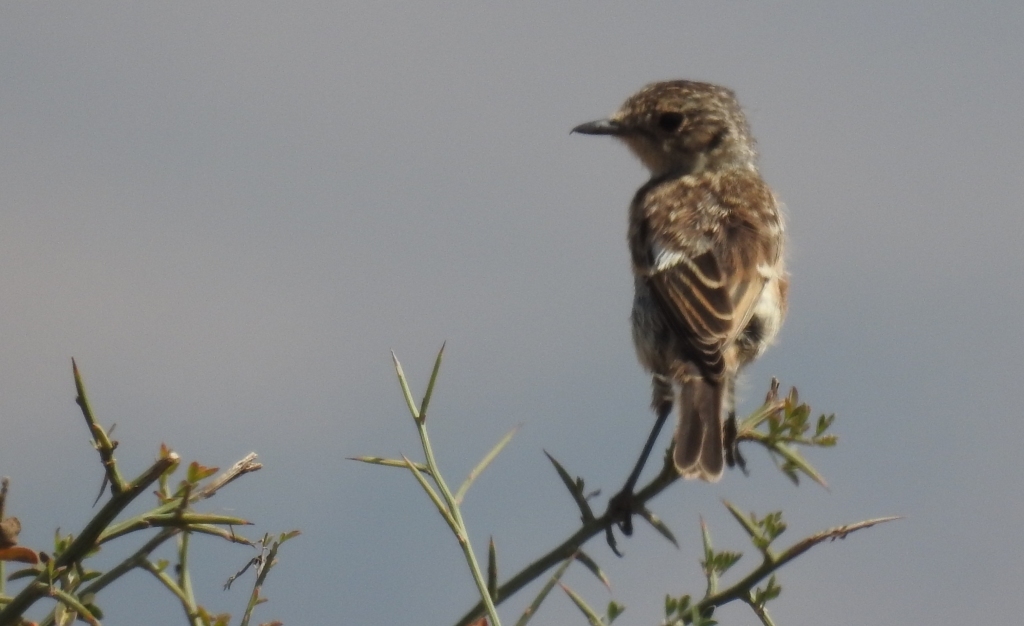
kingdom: Animalia
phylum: Chordata
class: Aves
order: Passeriformes
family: Muscicapidae
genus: Saxicola
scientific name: Saxicola rubicola
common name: European stonechat
